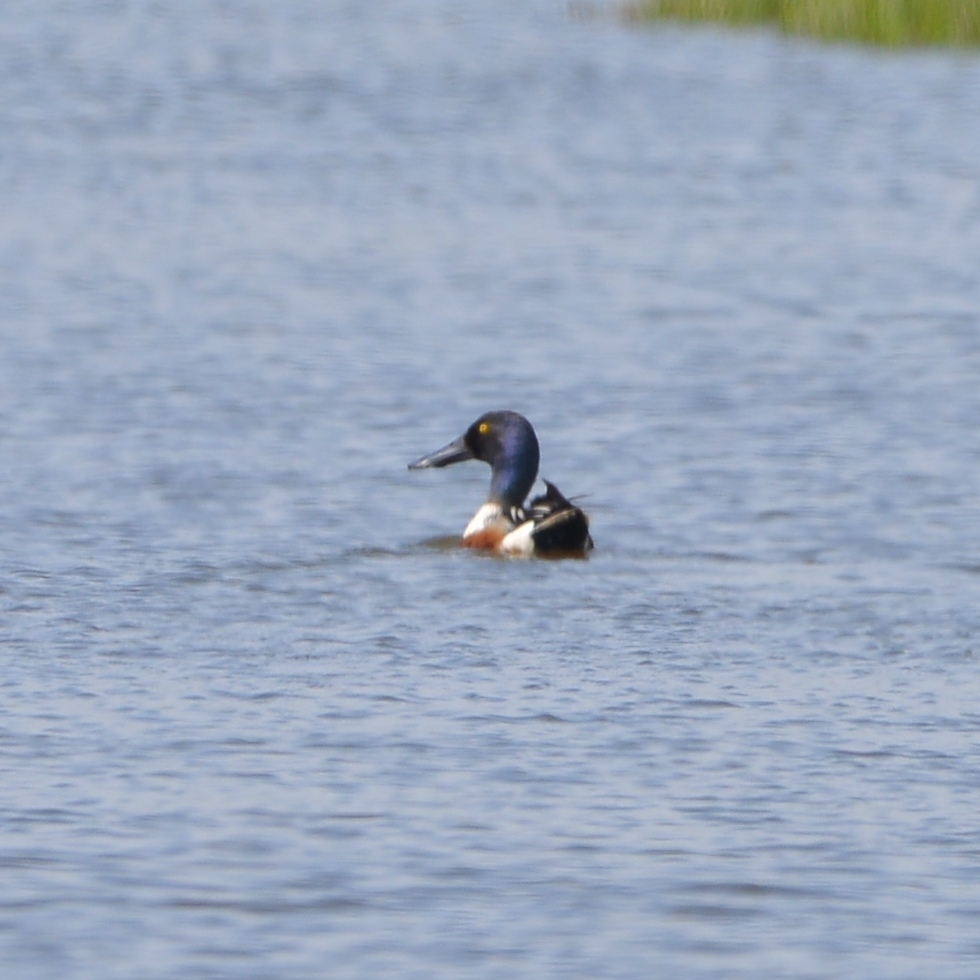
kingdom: Animalia
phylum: Chordata
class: Aves
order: Anseriformes
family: Anatidae
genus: Spatula
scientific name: Spatula clypeata
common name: Northern shoveler
